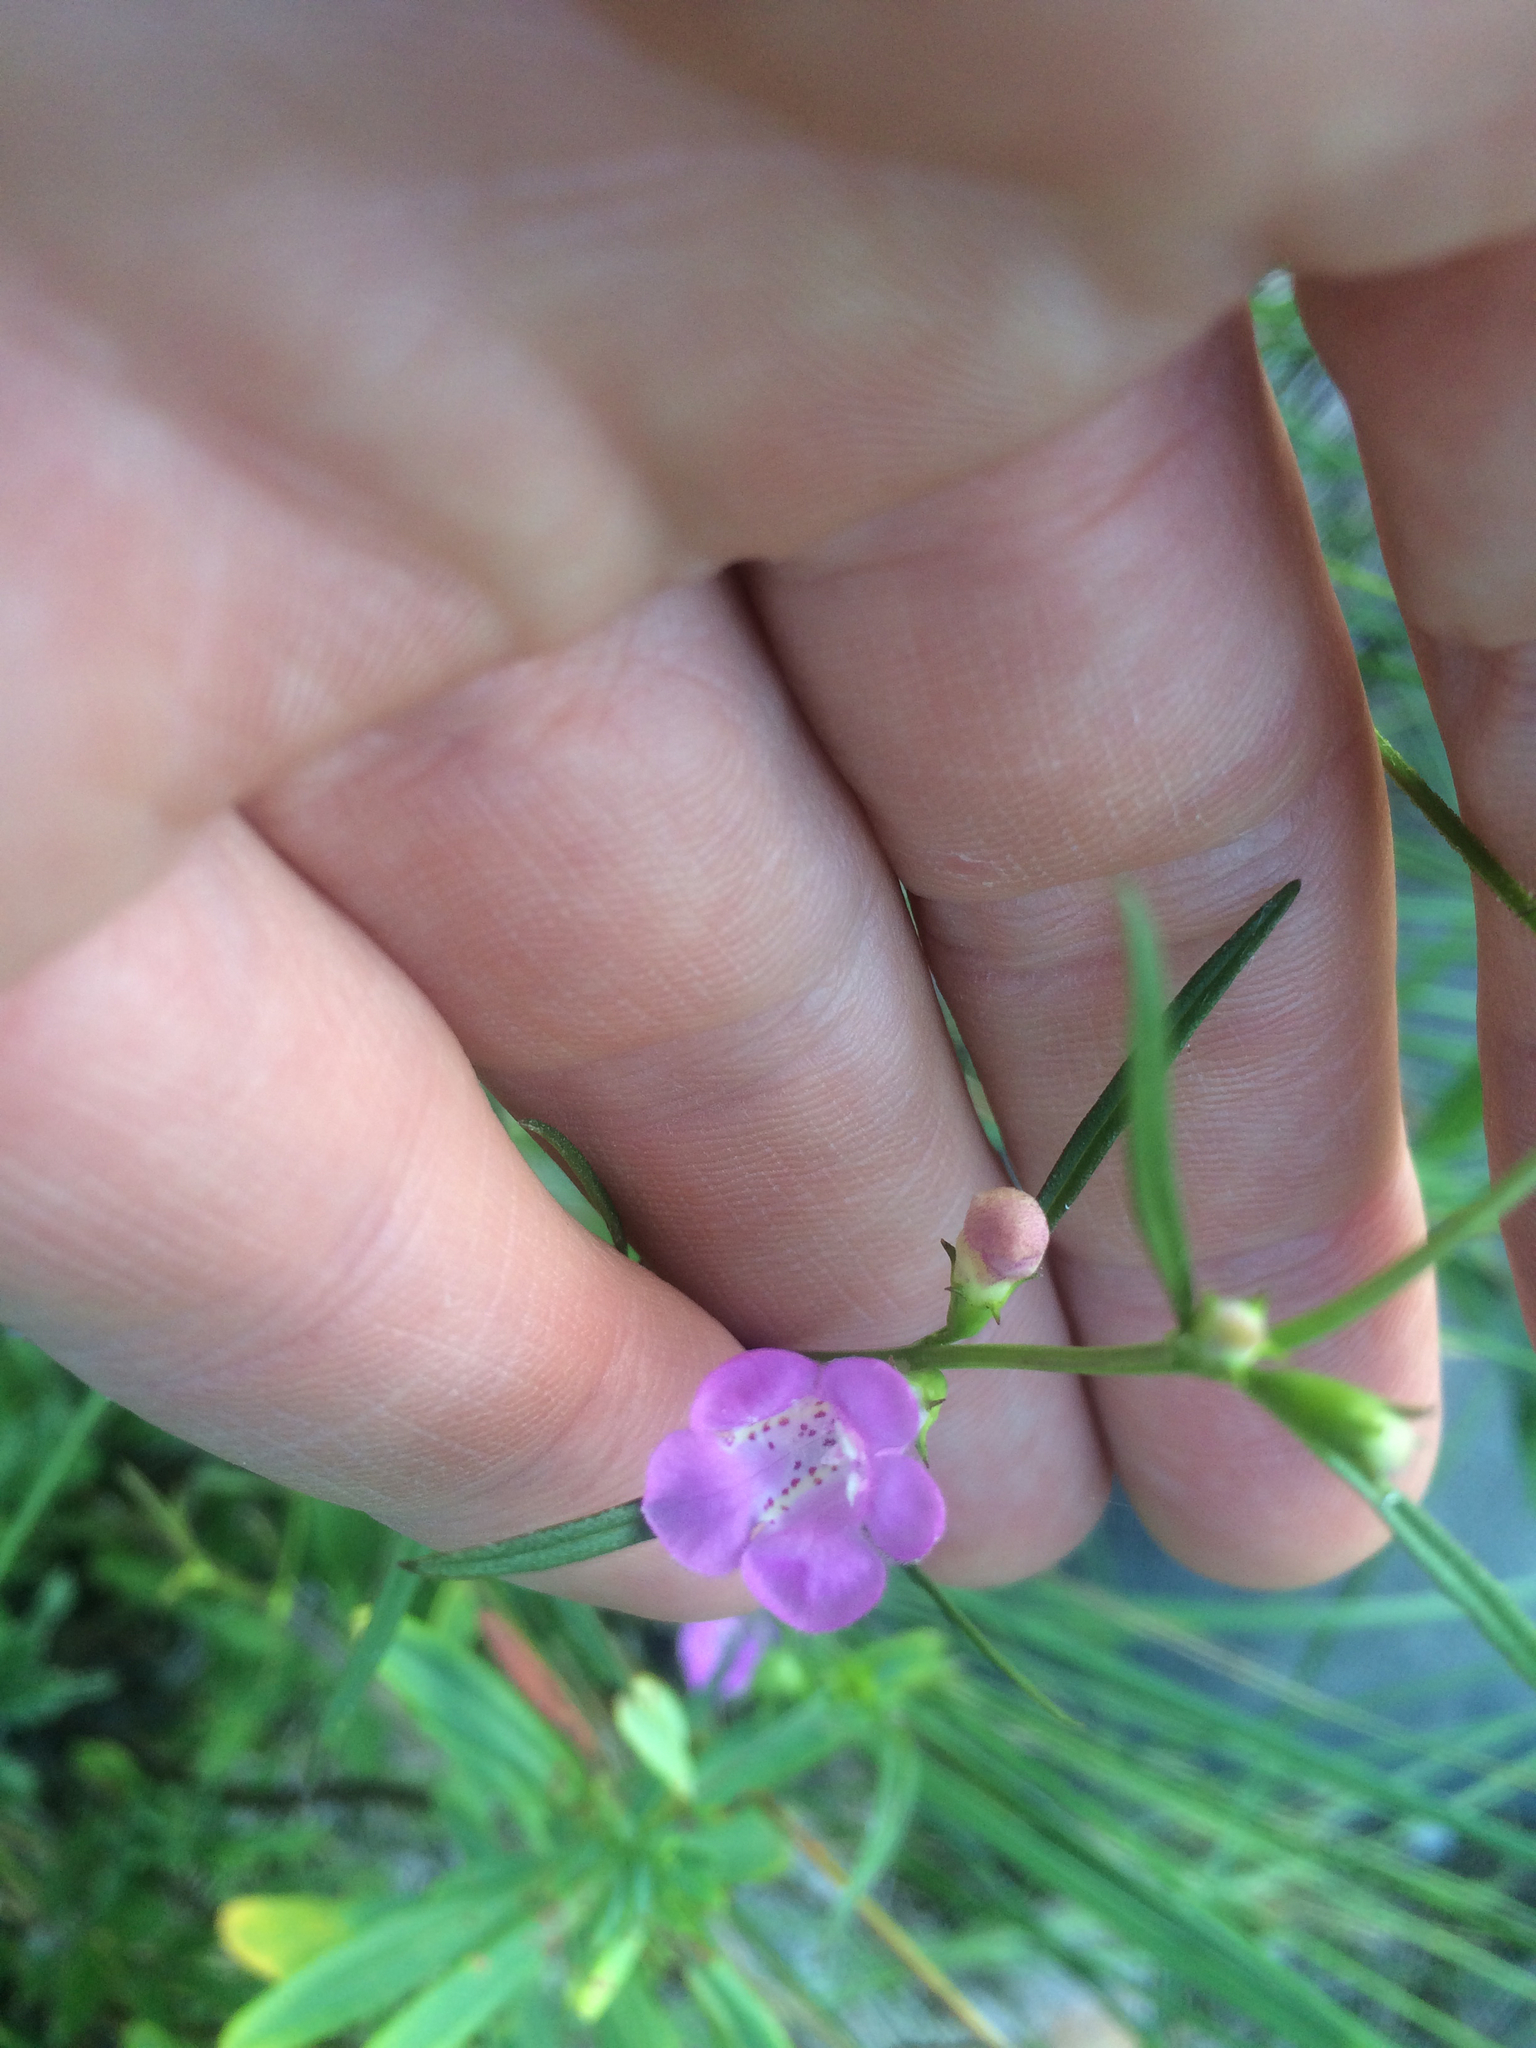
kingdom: Plantae
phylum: Tracheophyta
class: Magnoliopsida
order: Lamiales
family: Orobanchaceae
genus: Agalinis
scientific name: Agalinis purpurea
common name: Purple false foxglove
